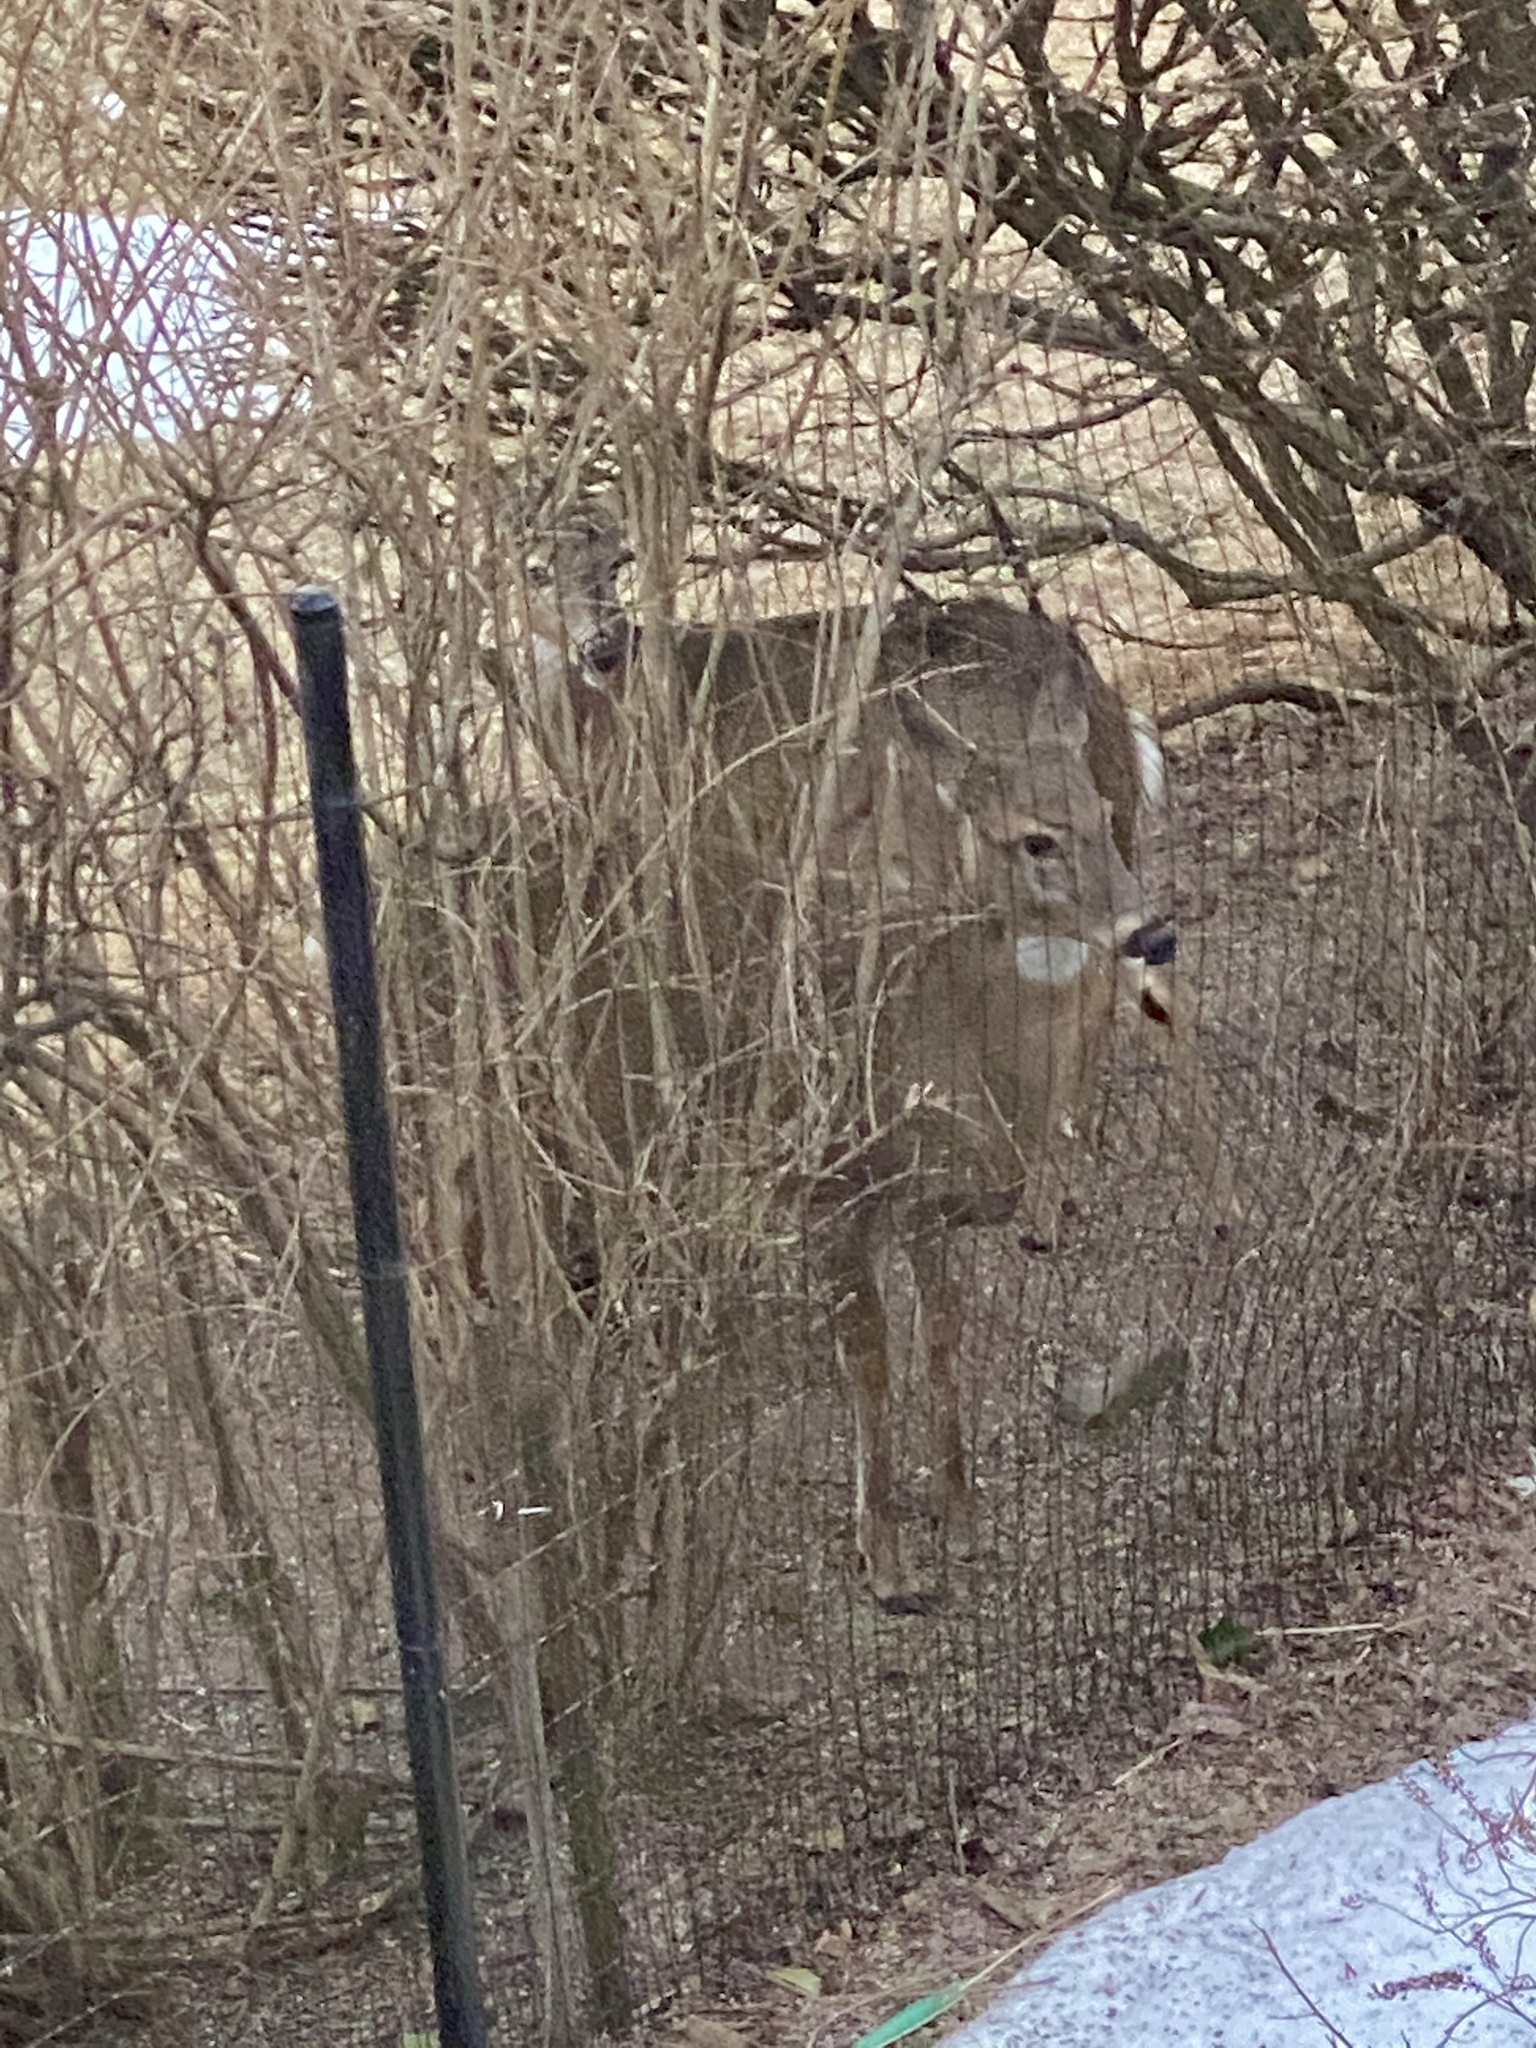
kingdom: Animalia
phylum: Chordata
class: Mammalia
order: Artiodactyla
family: Cervidae
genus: Odocoileus
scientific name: Odocoileus virginianus
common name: White-tailed deer
